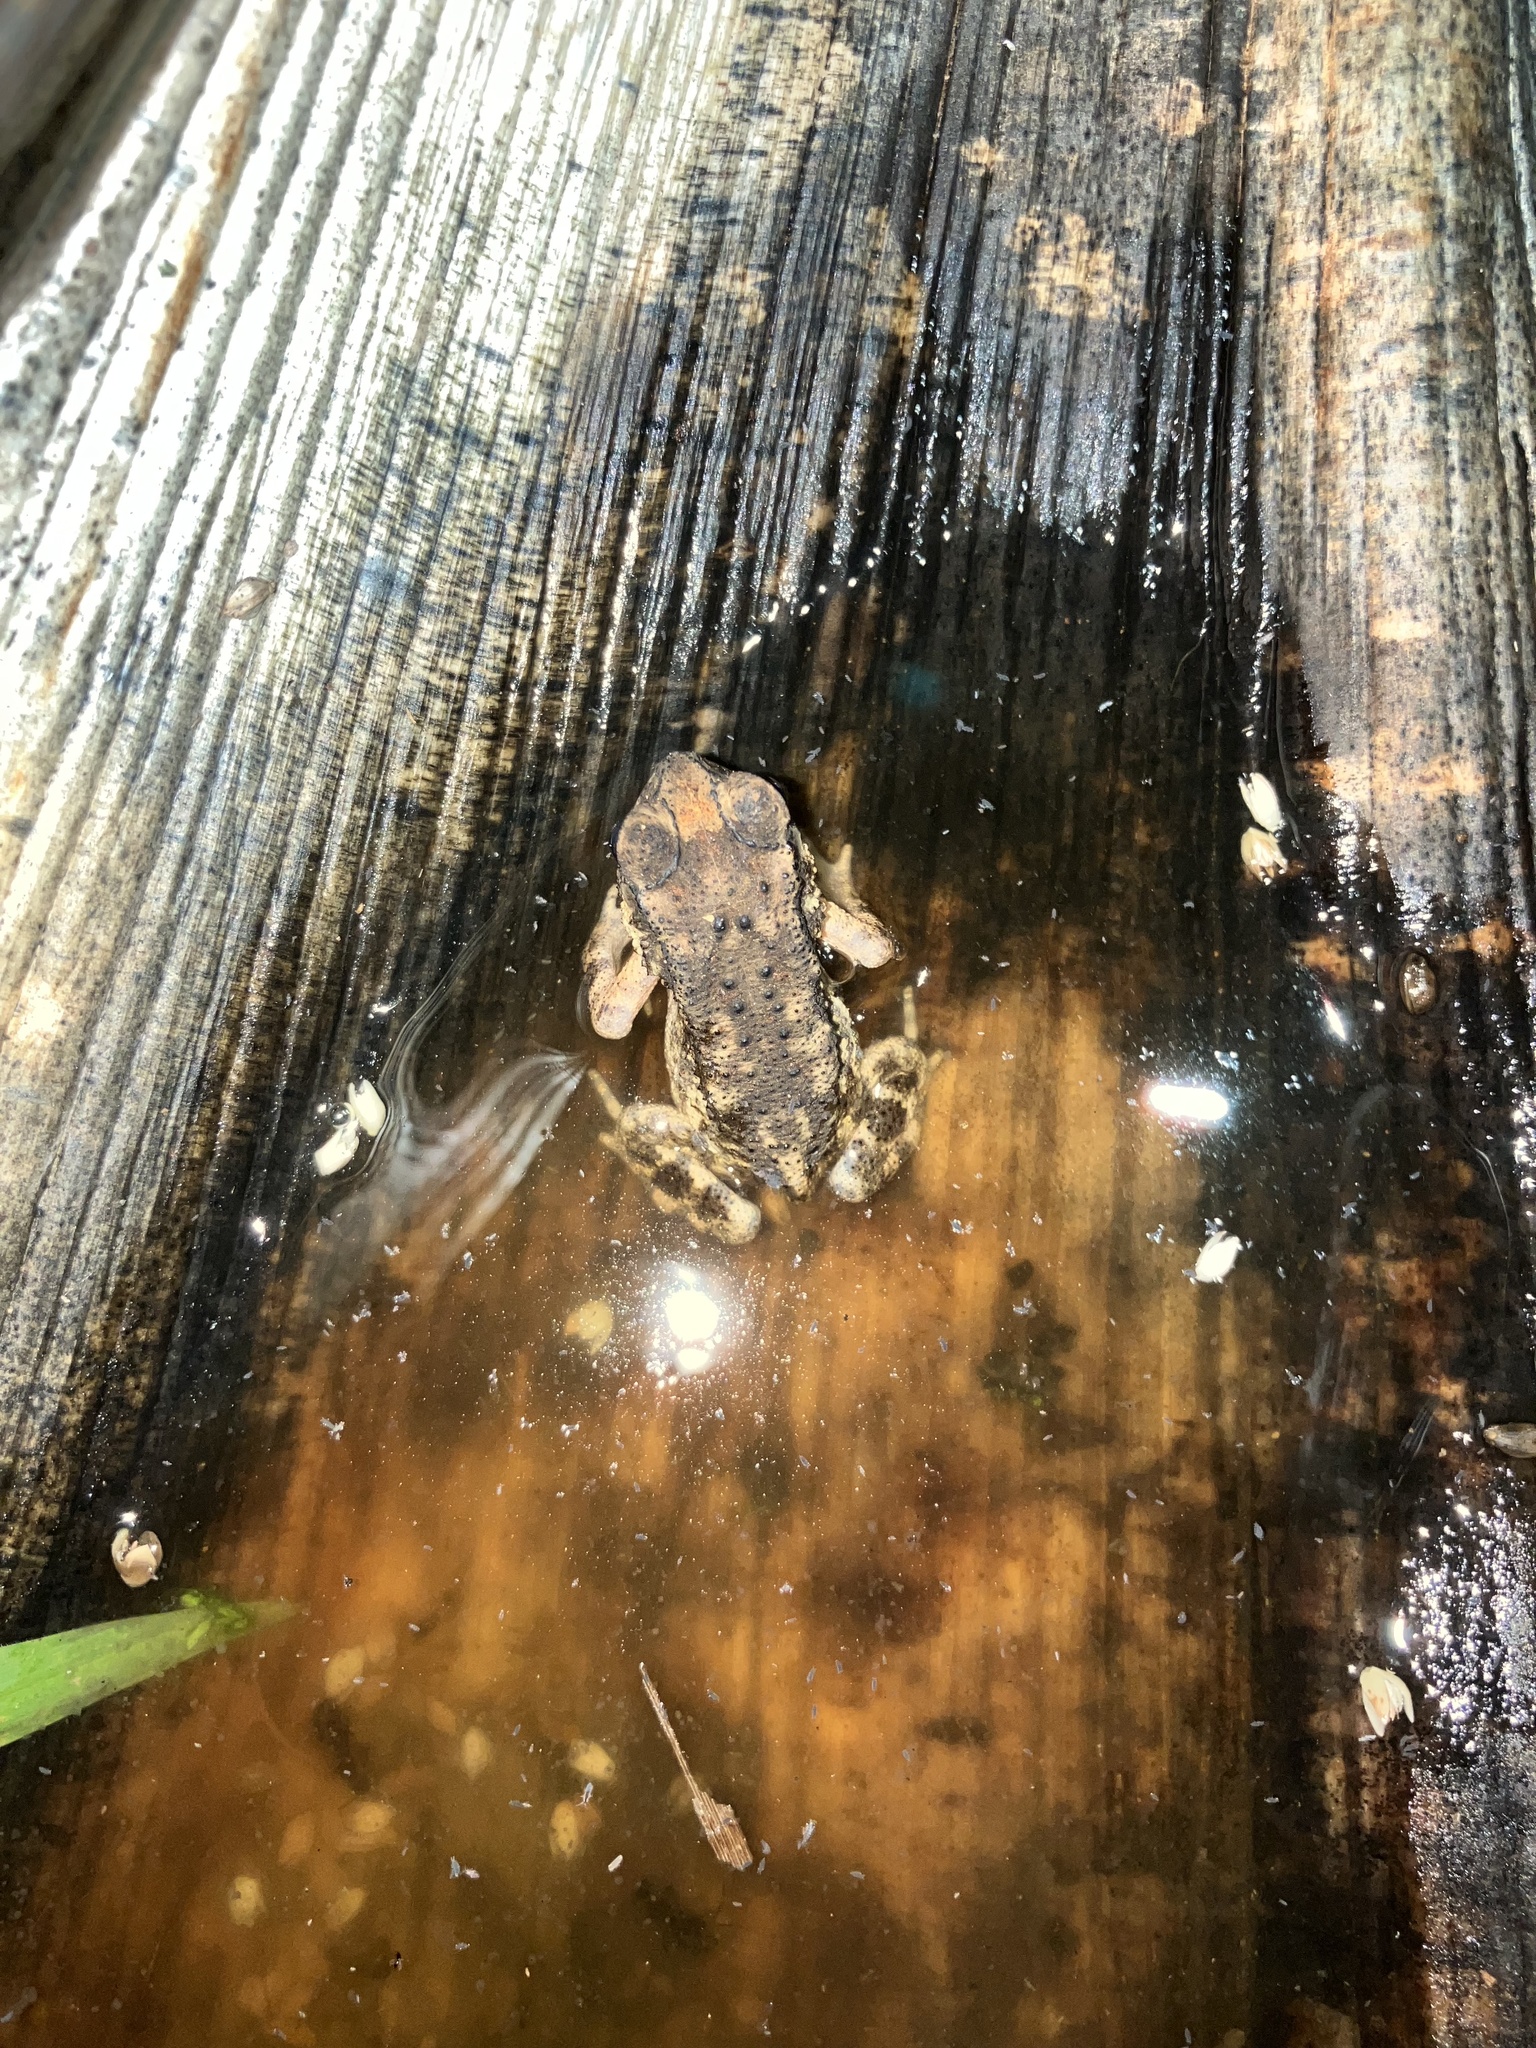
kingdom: Animalia
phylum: Chordata
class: Amphibia
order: Anura
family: Bufonidae
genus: Duttaphrynus
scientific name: Duttaphrynus melanostictus
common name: Common sunda toad
